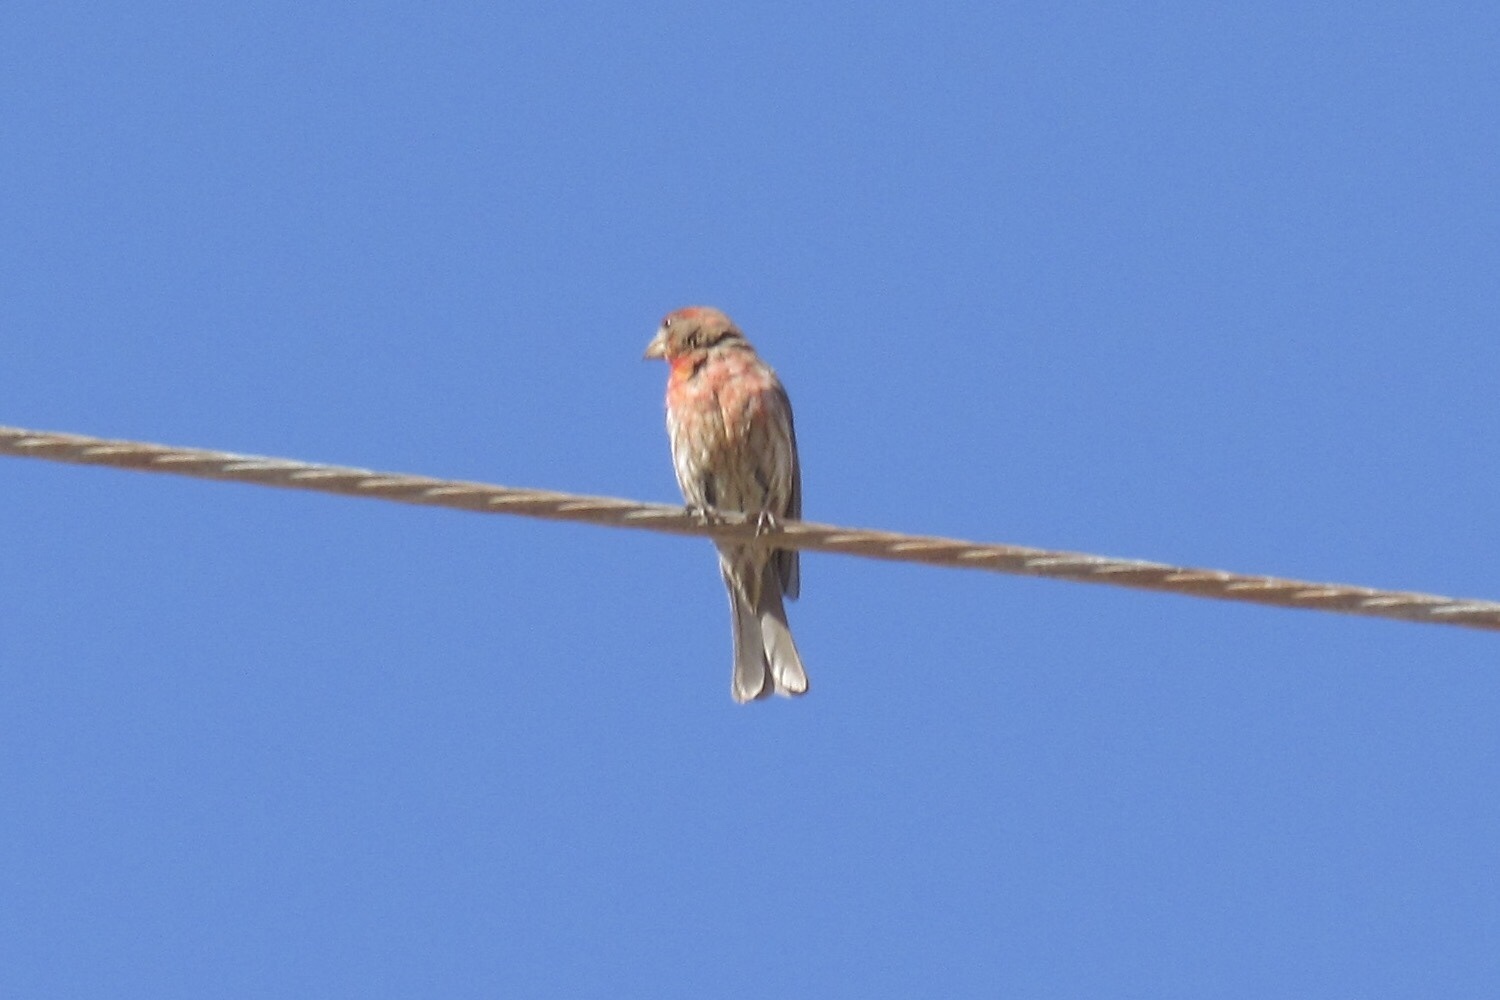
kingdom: Animalia
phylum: Chordata
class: Aves
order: Passeriformes
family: Fringillidae
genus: Haemorhous
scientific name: Haemorhous mexicanus
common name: House finch
